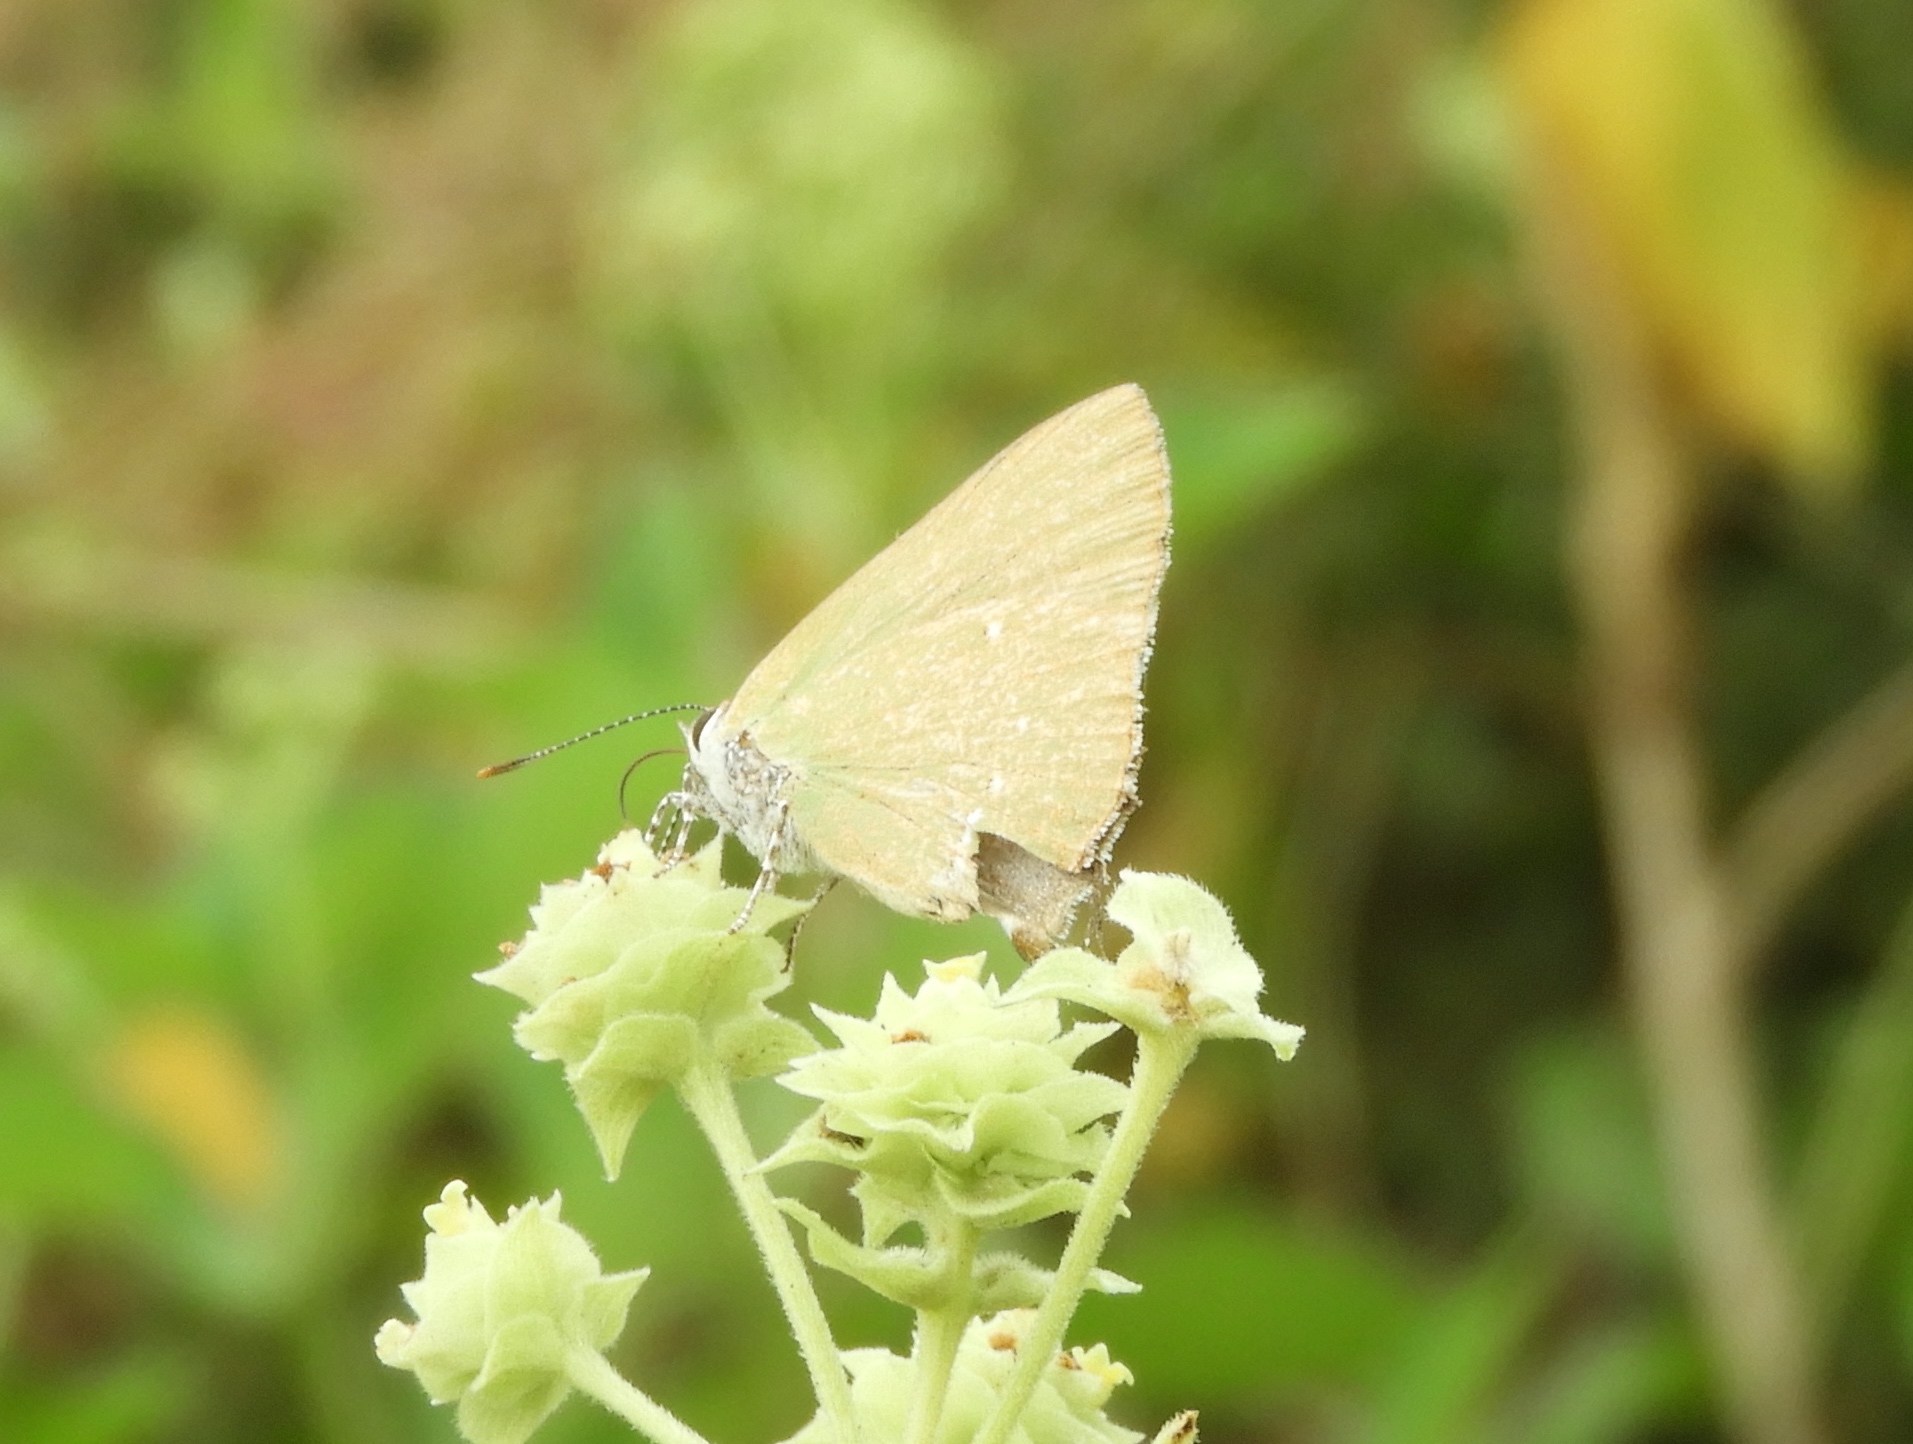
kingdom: Animalia
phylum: Arthropoda
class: Insecta
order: Lepidoptera
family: Lycaenidae
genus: Cyanophrys
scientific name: Cyanophrys
